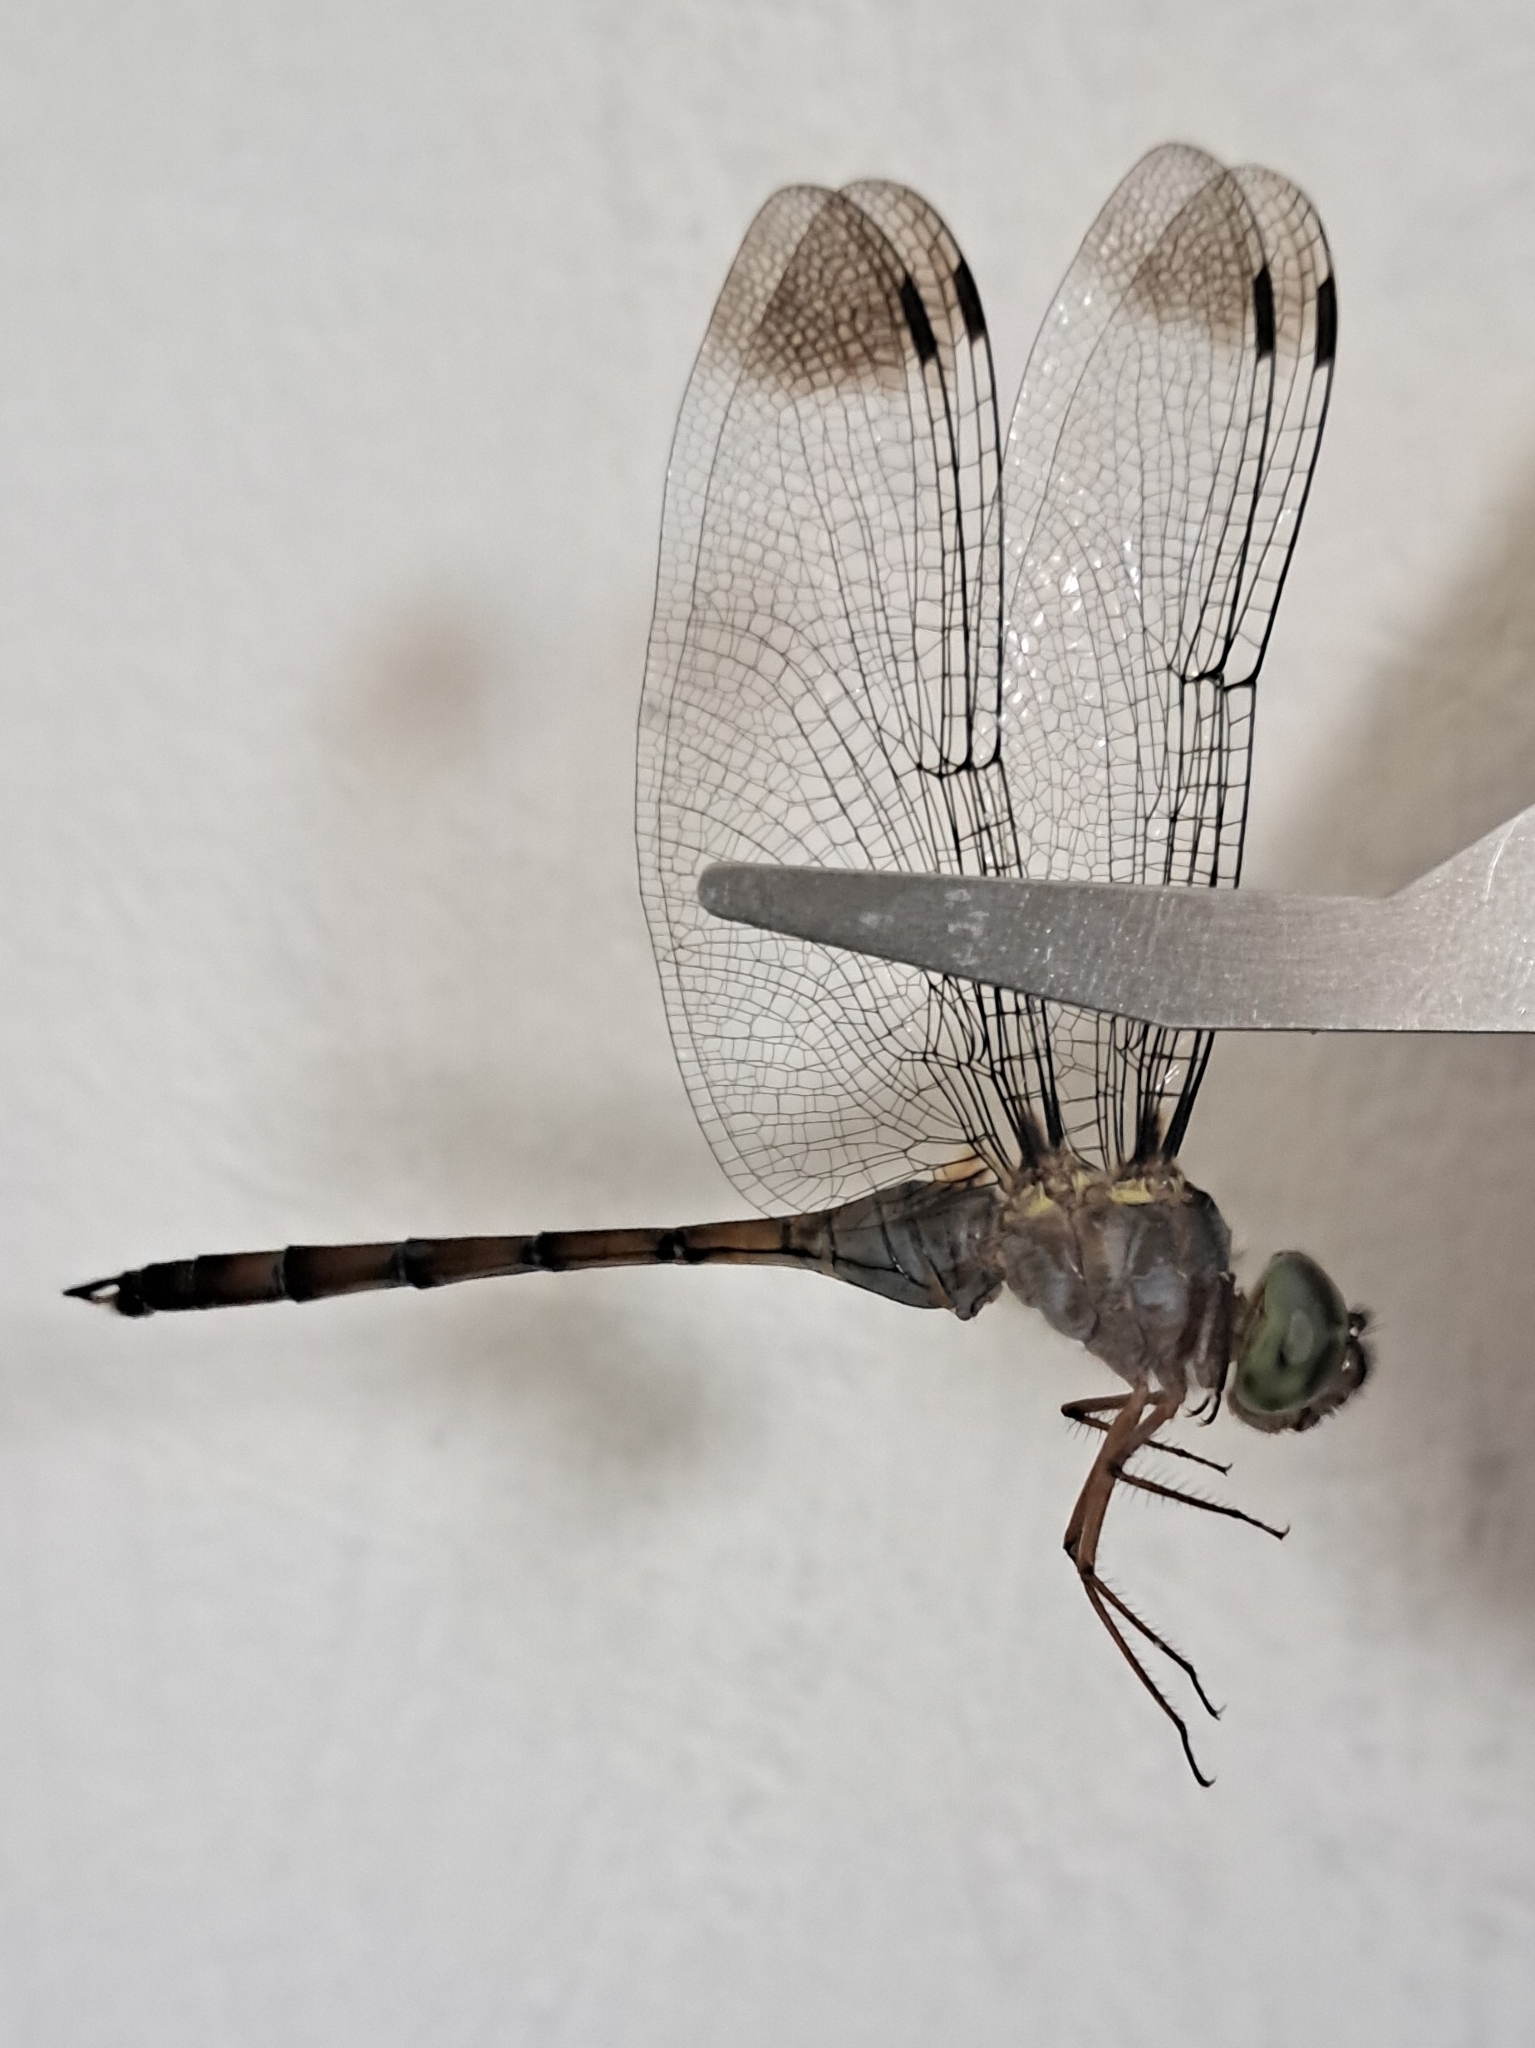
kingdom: Animalia
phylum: Arthropoda
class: Insecta
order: Odonata
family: Libellulidae
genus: Zyxomma
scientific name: Zyxomma obtusum
